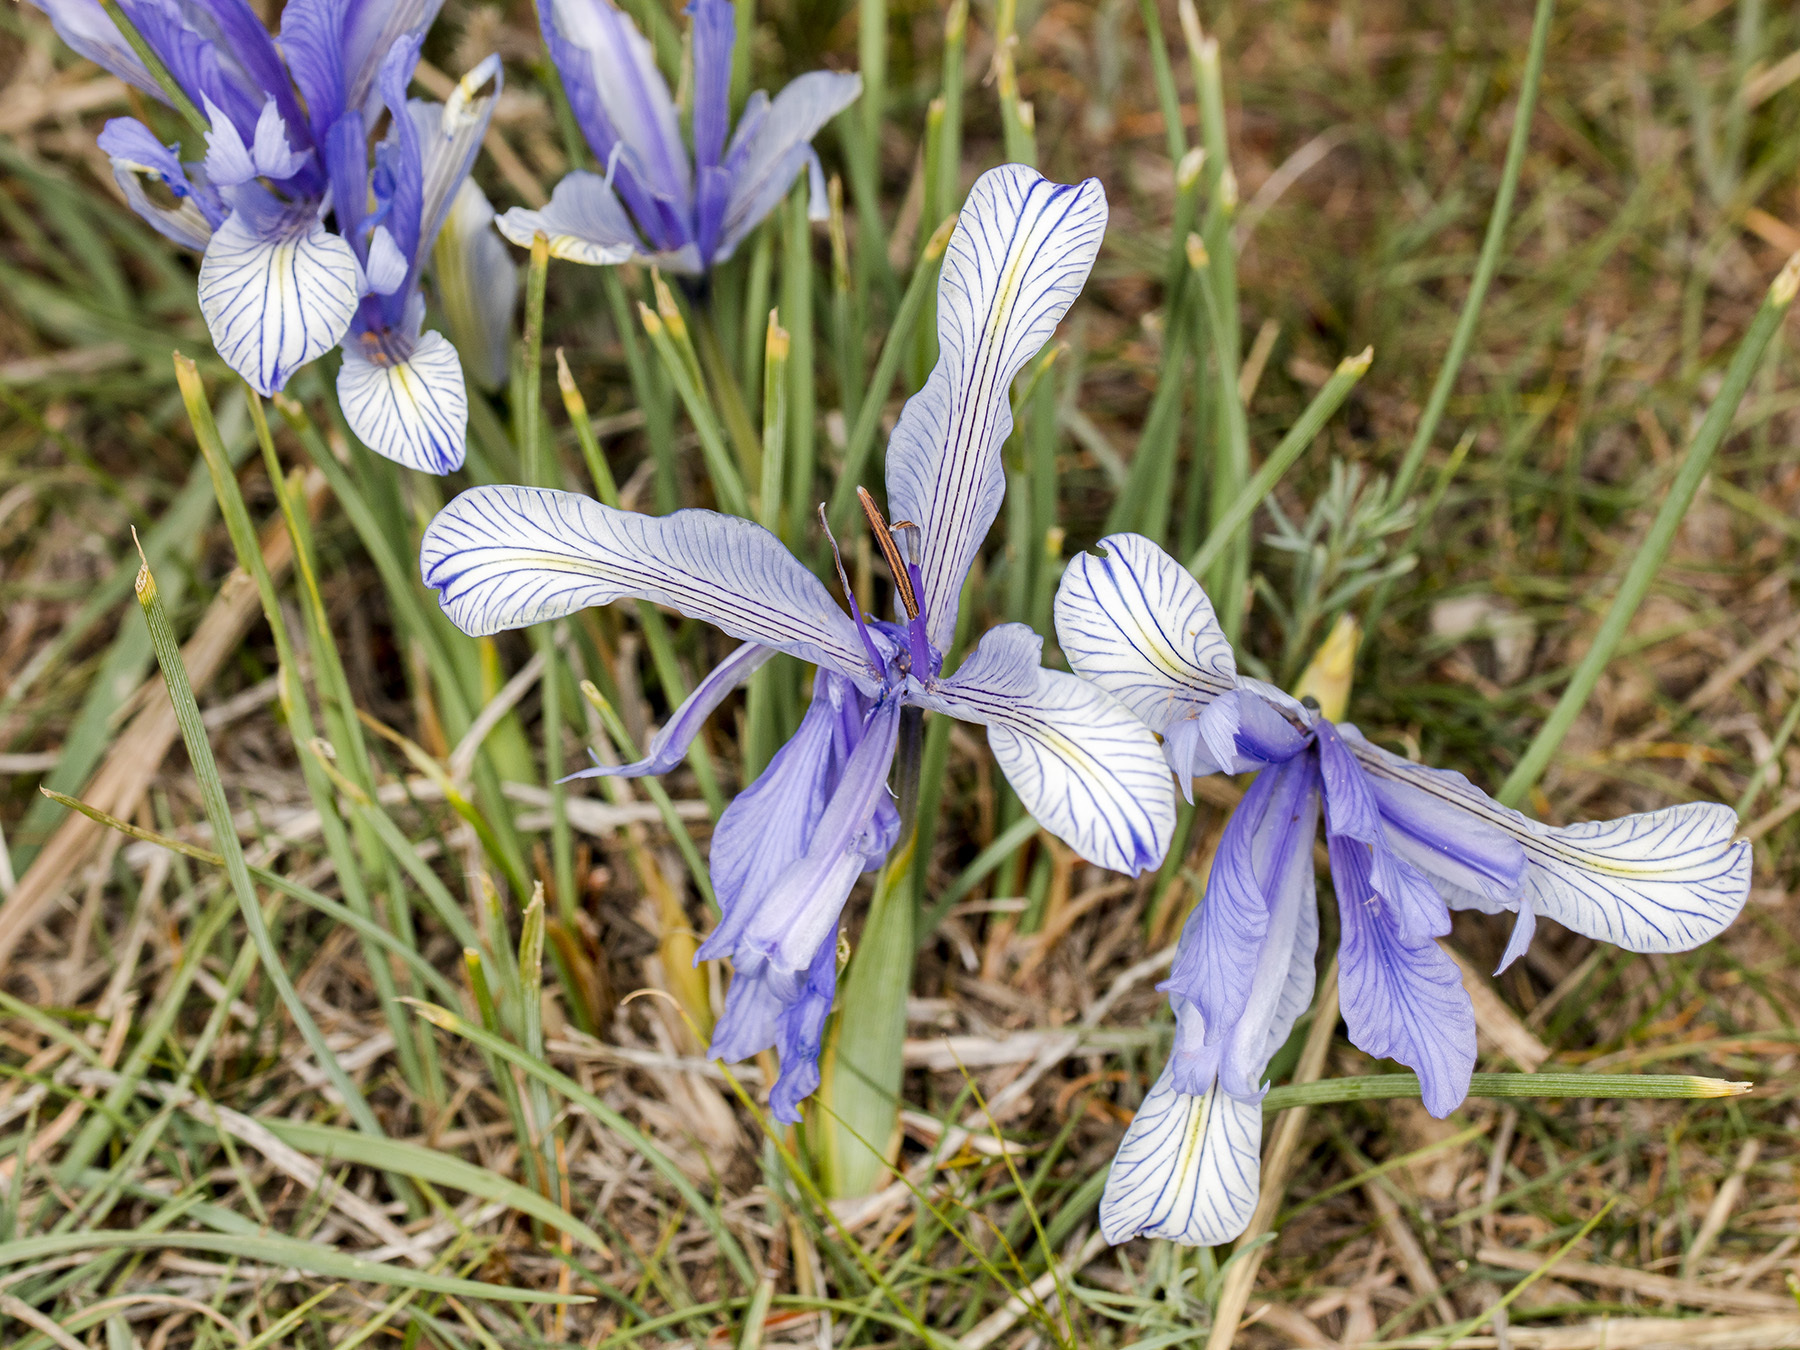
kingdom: Plantae
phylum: Tracheophyta
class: Liliopsida
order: Asparagales
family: Iridaceae
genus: Iris
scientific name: Iris tenuifolia
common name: Slender-leaf iris
